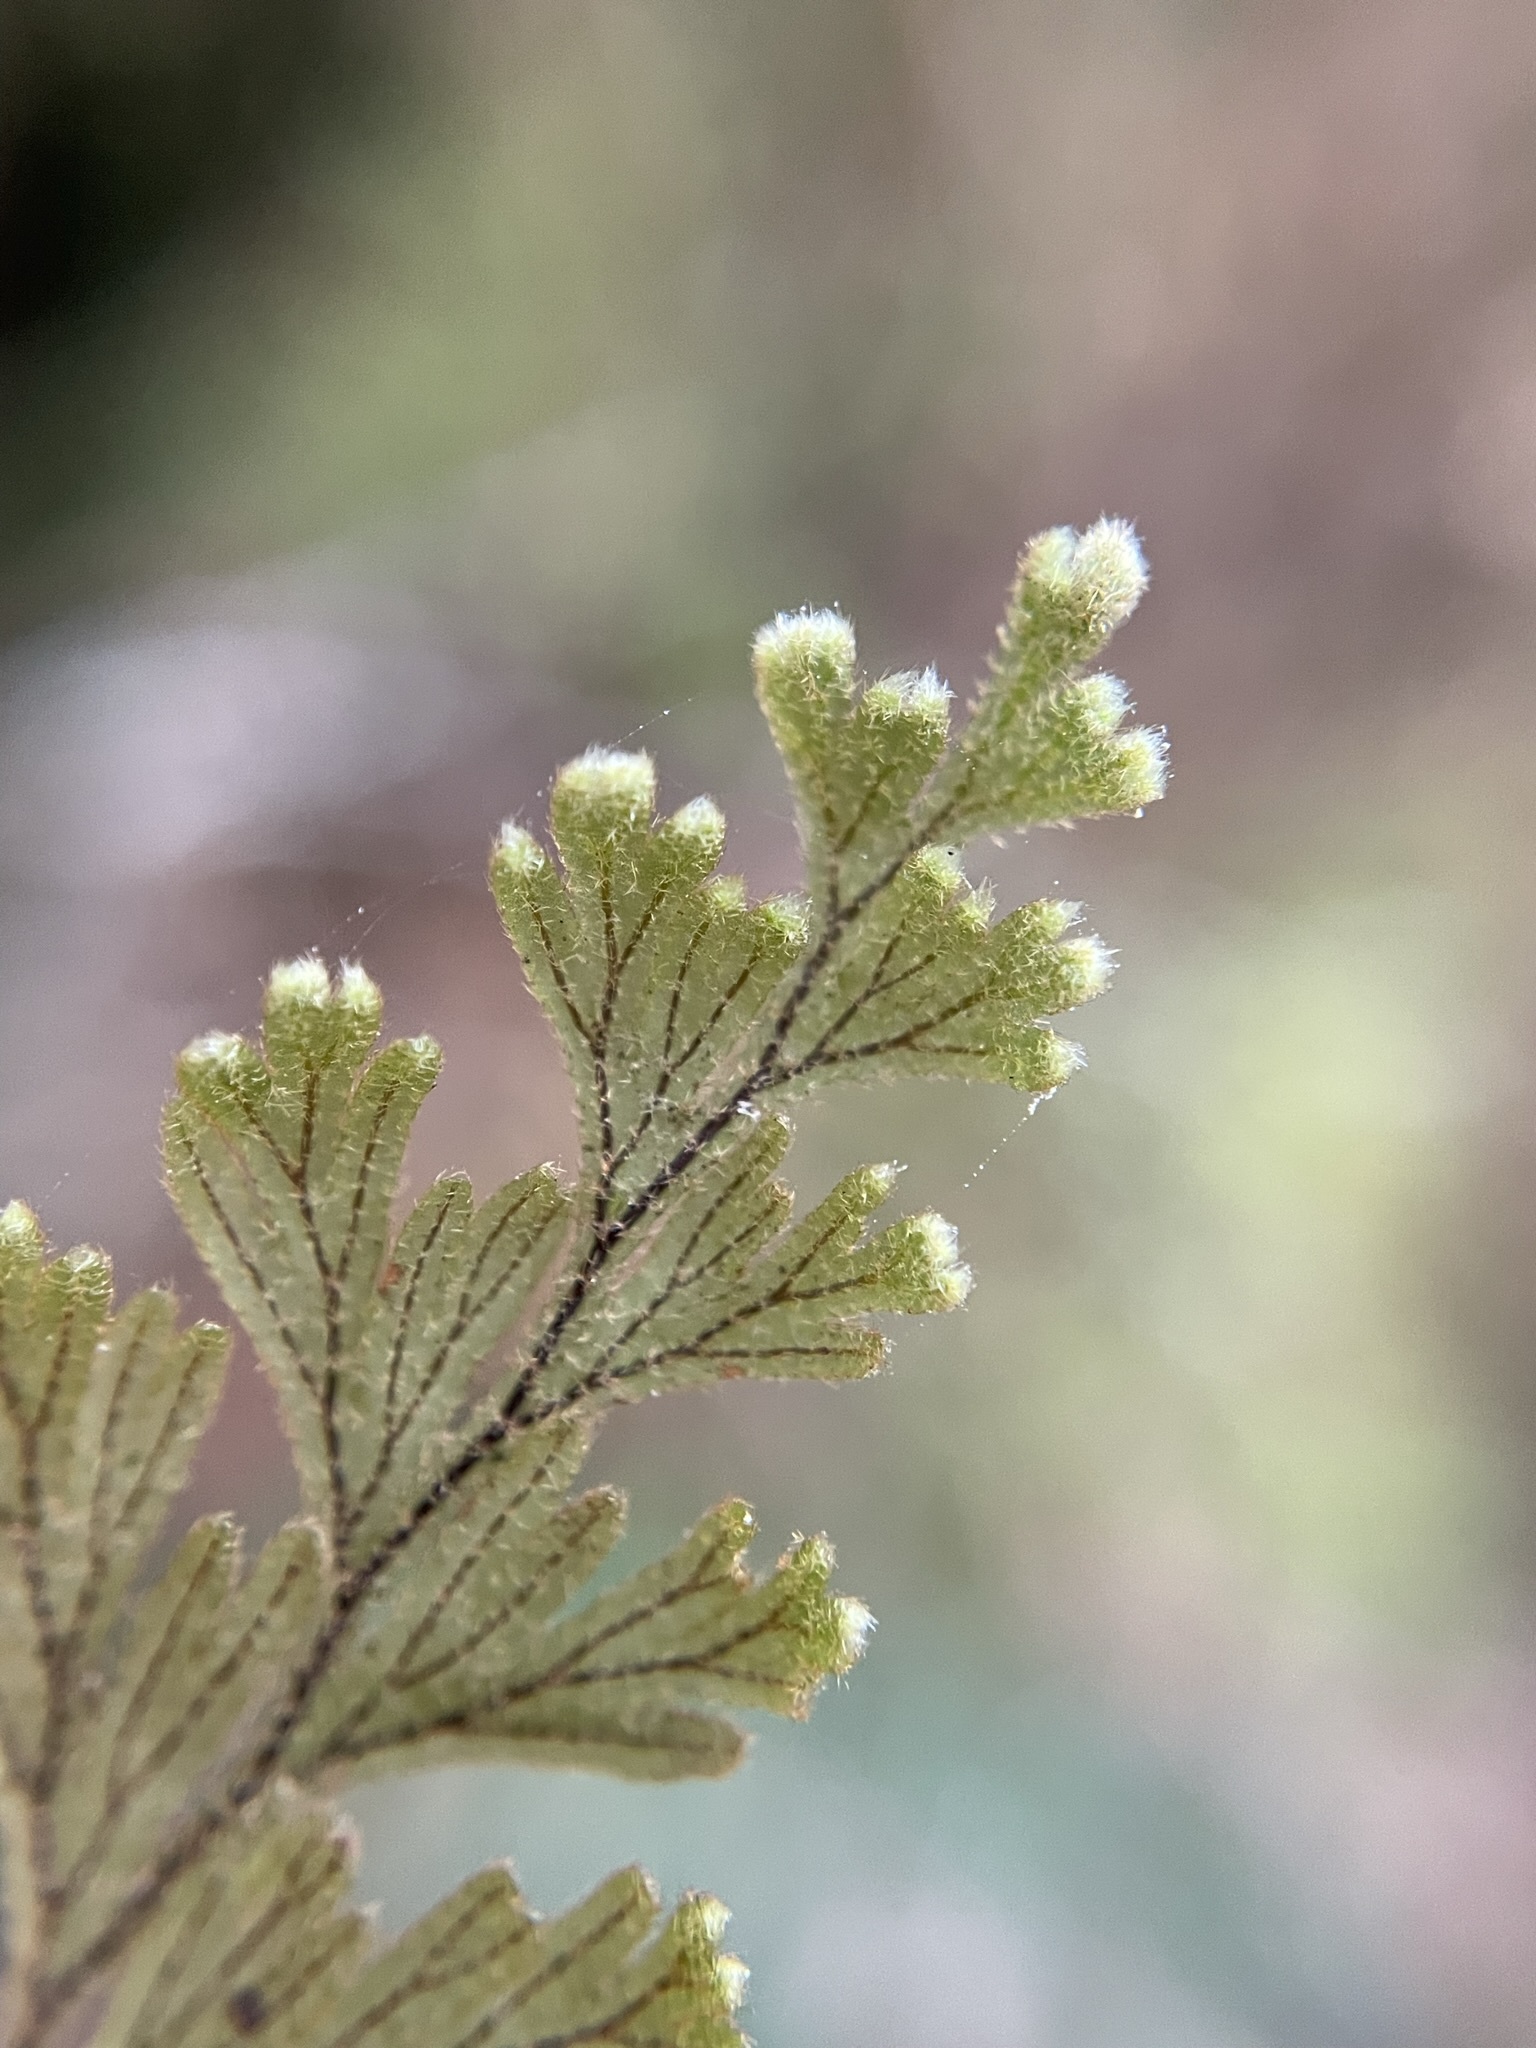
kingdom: Plantae
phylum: Tracheophyta
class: Polypodiopsida
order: Hymenophyllales
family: Hymenophyllaceae
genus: Hymenophyllum
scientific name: Hymenophyllum frankliniae
